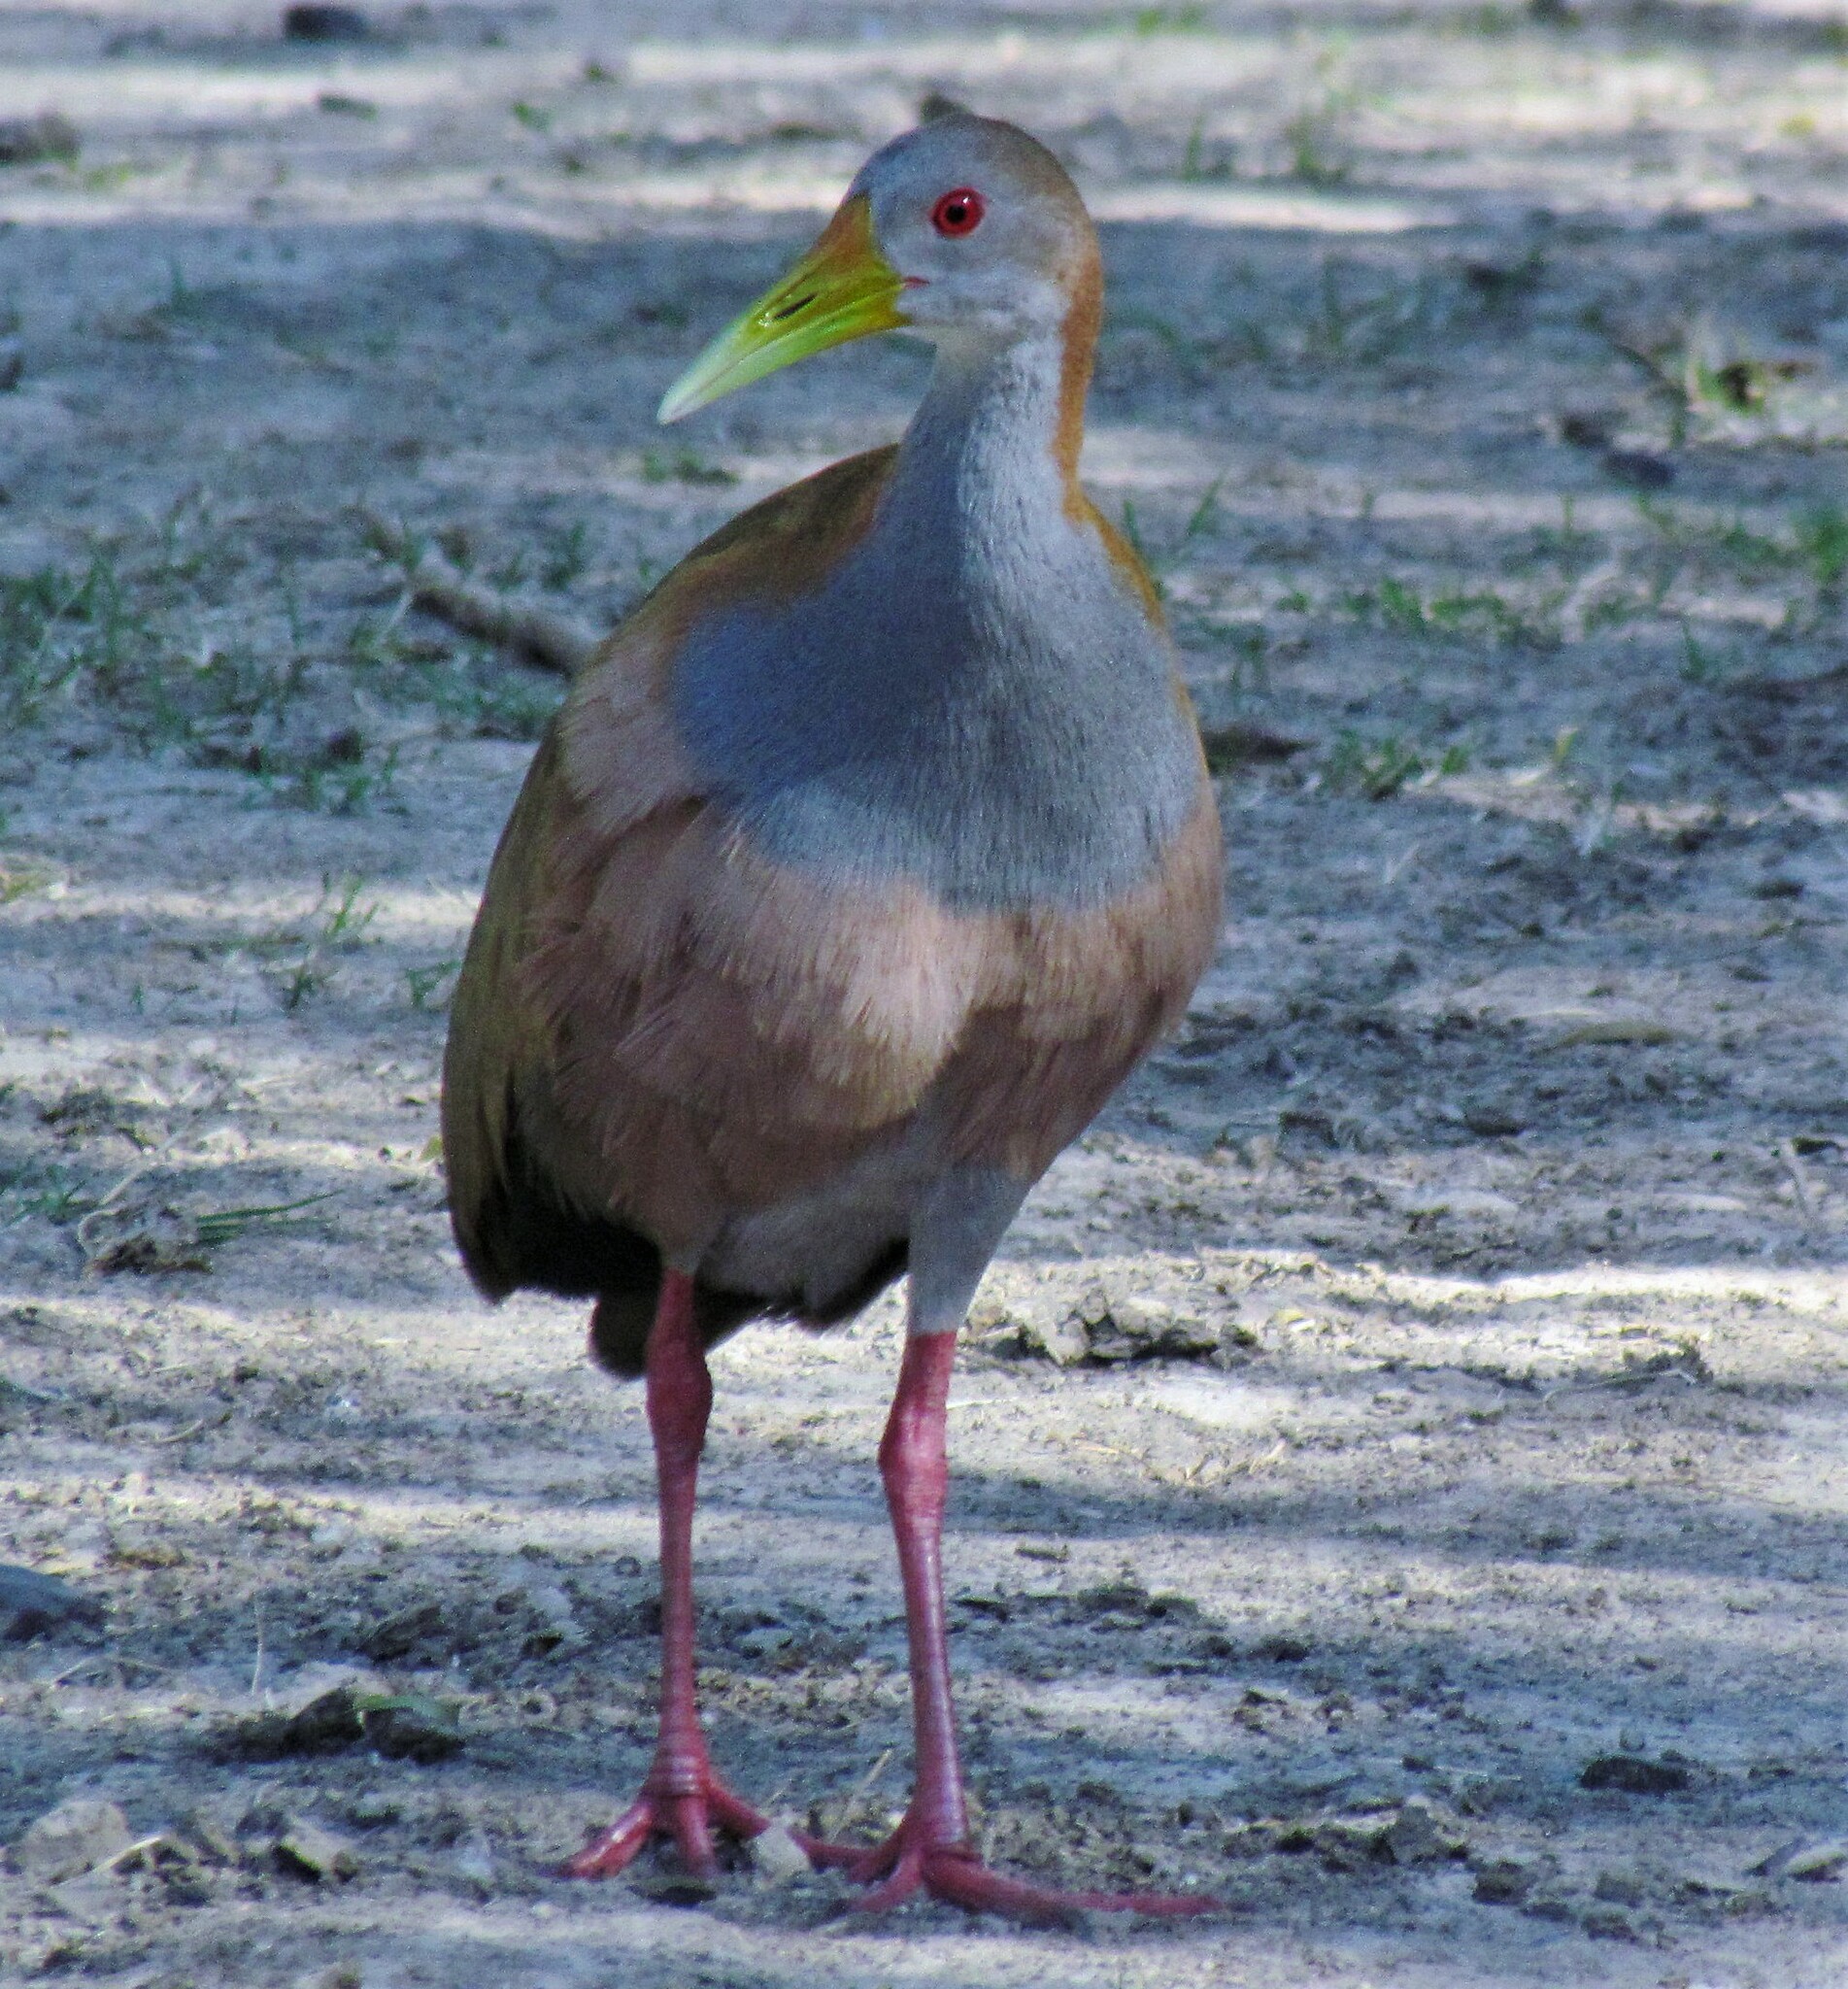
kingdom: Animalia
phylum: Chordata
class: Aves
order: Gruiformes
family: Rallidae
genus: Aramides
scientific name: Aramides ypecaha
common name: Giant wood rail
